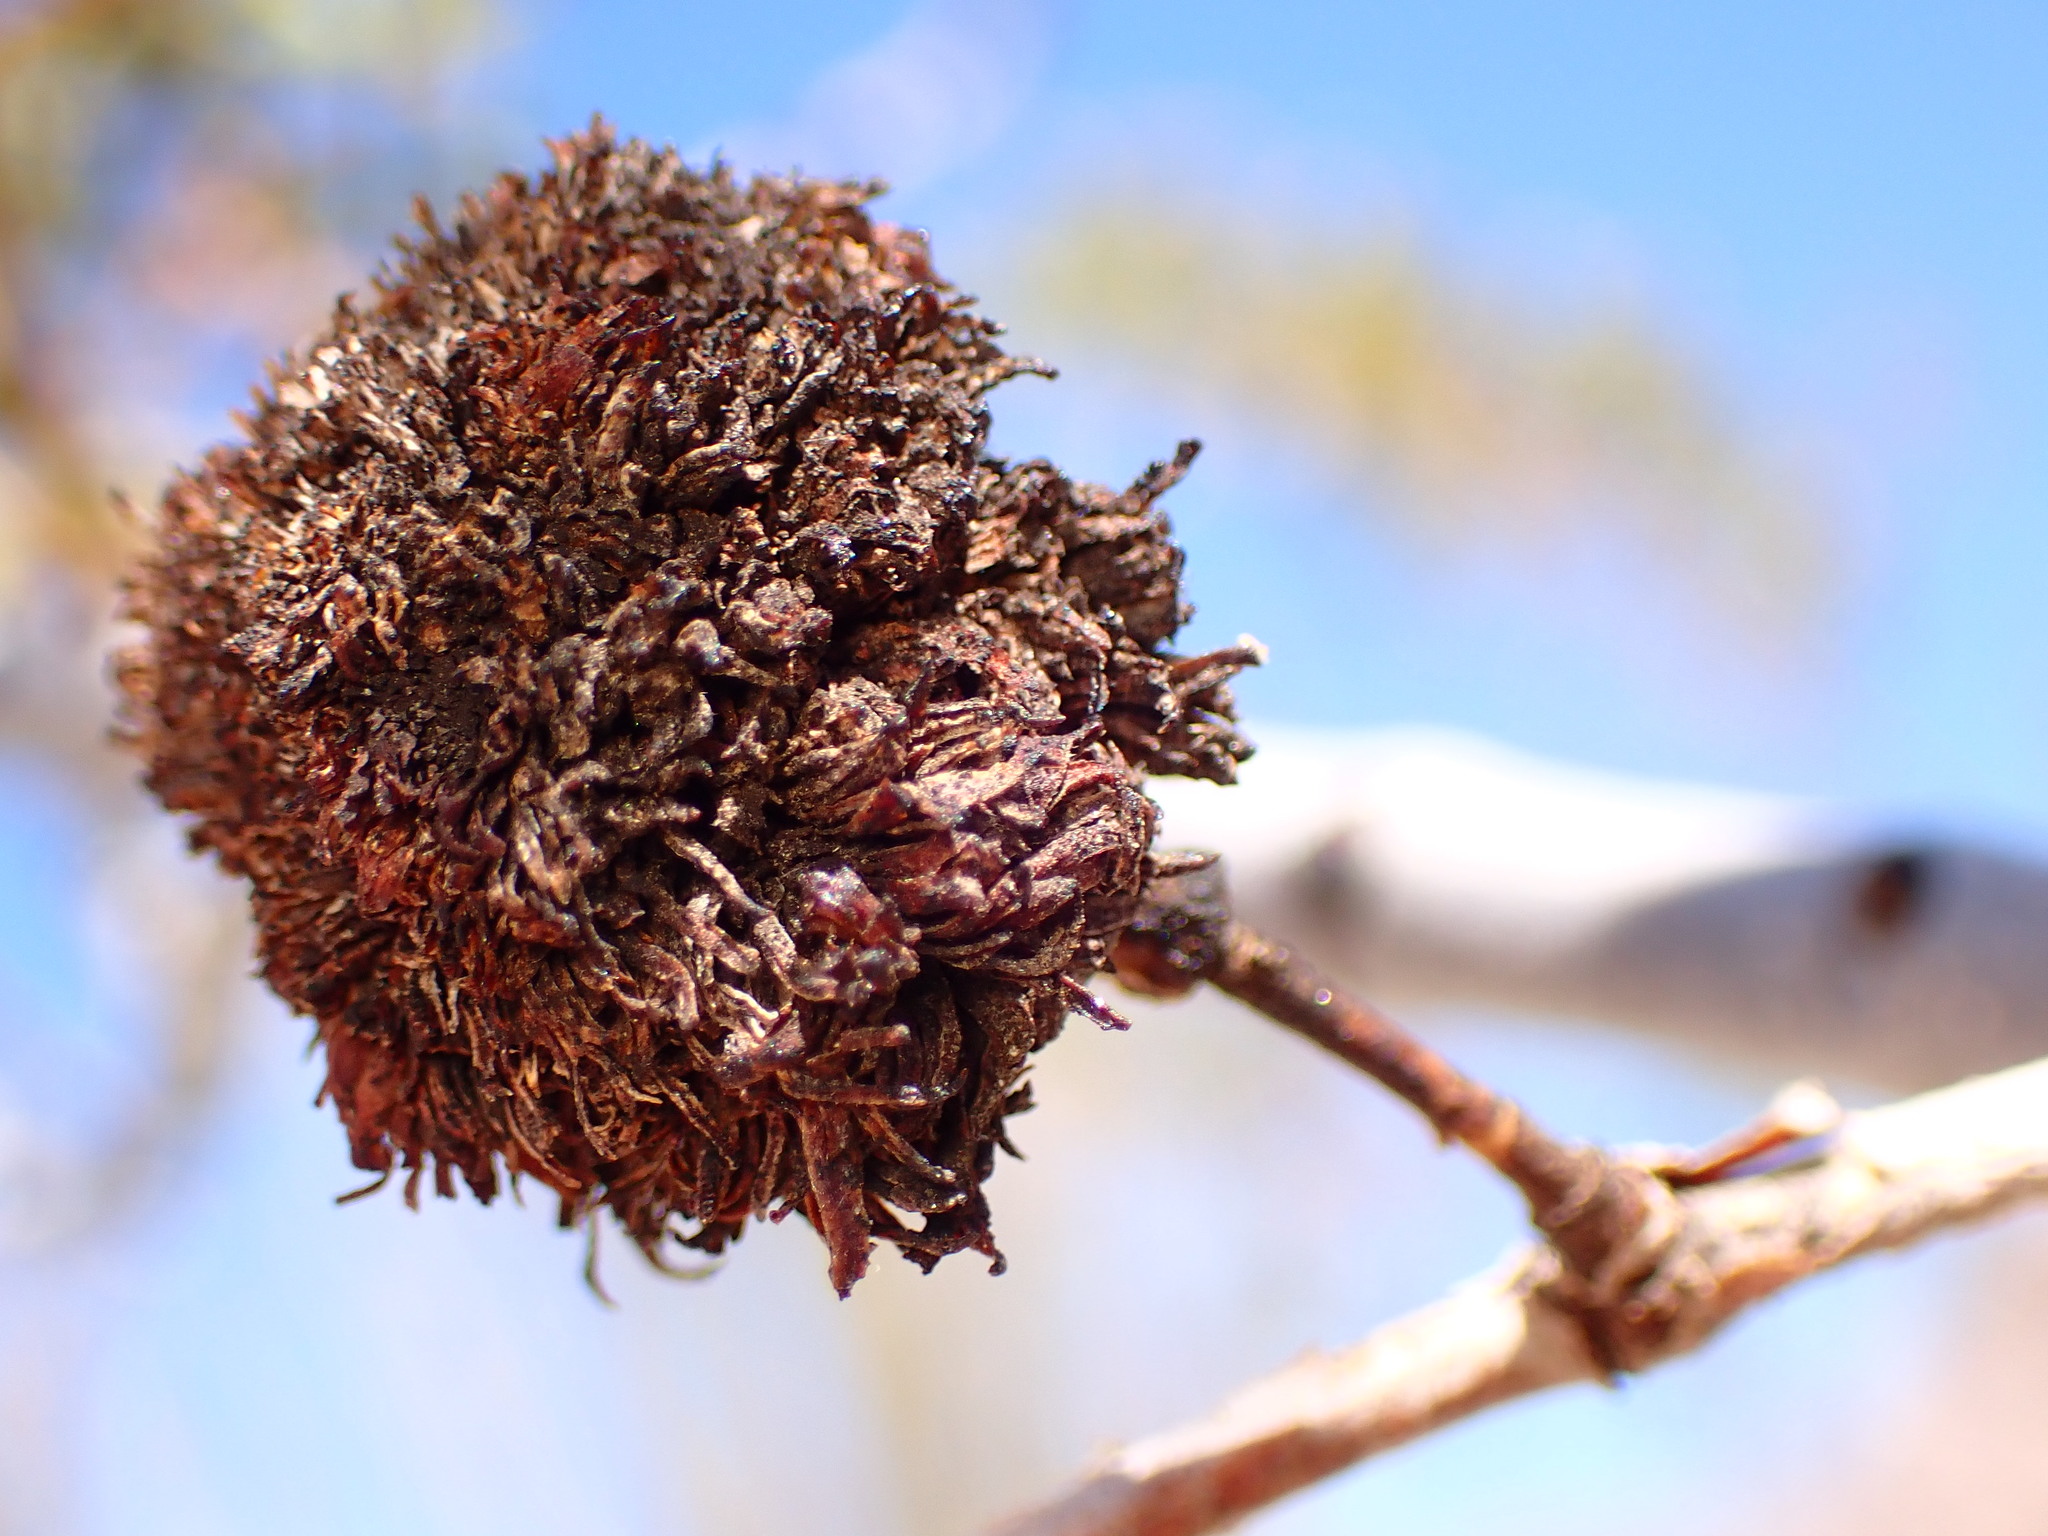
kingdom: Animalia
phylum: Arthropoda
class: Insecta
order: Diptera
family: Cecidomyiidae
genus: Asphondylia
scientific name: Asphondylia auripila
